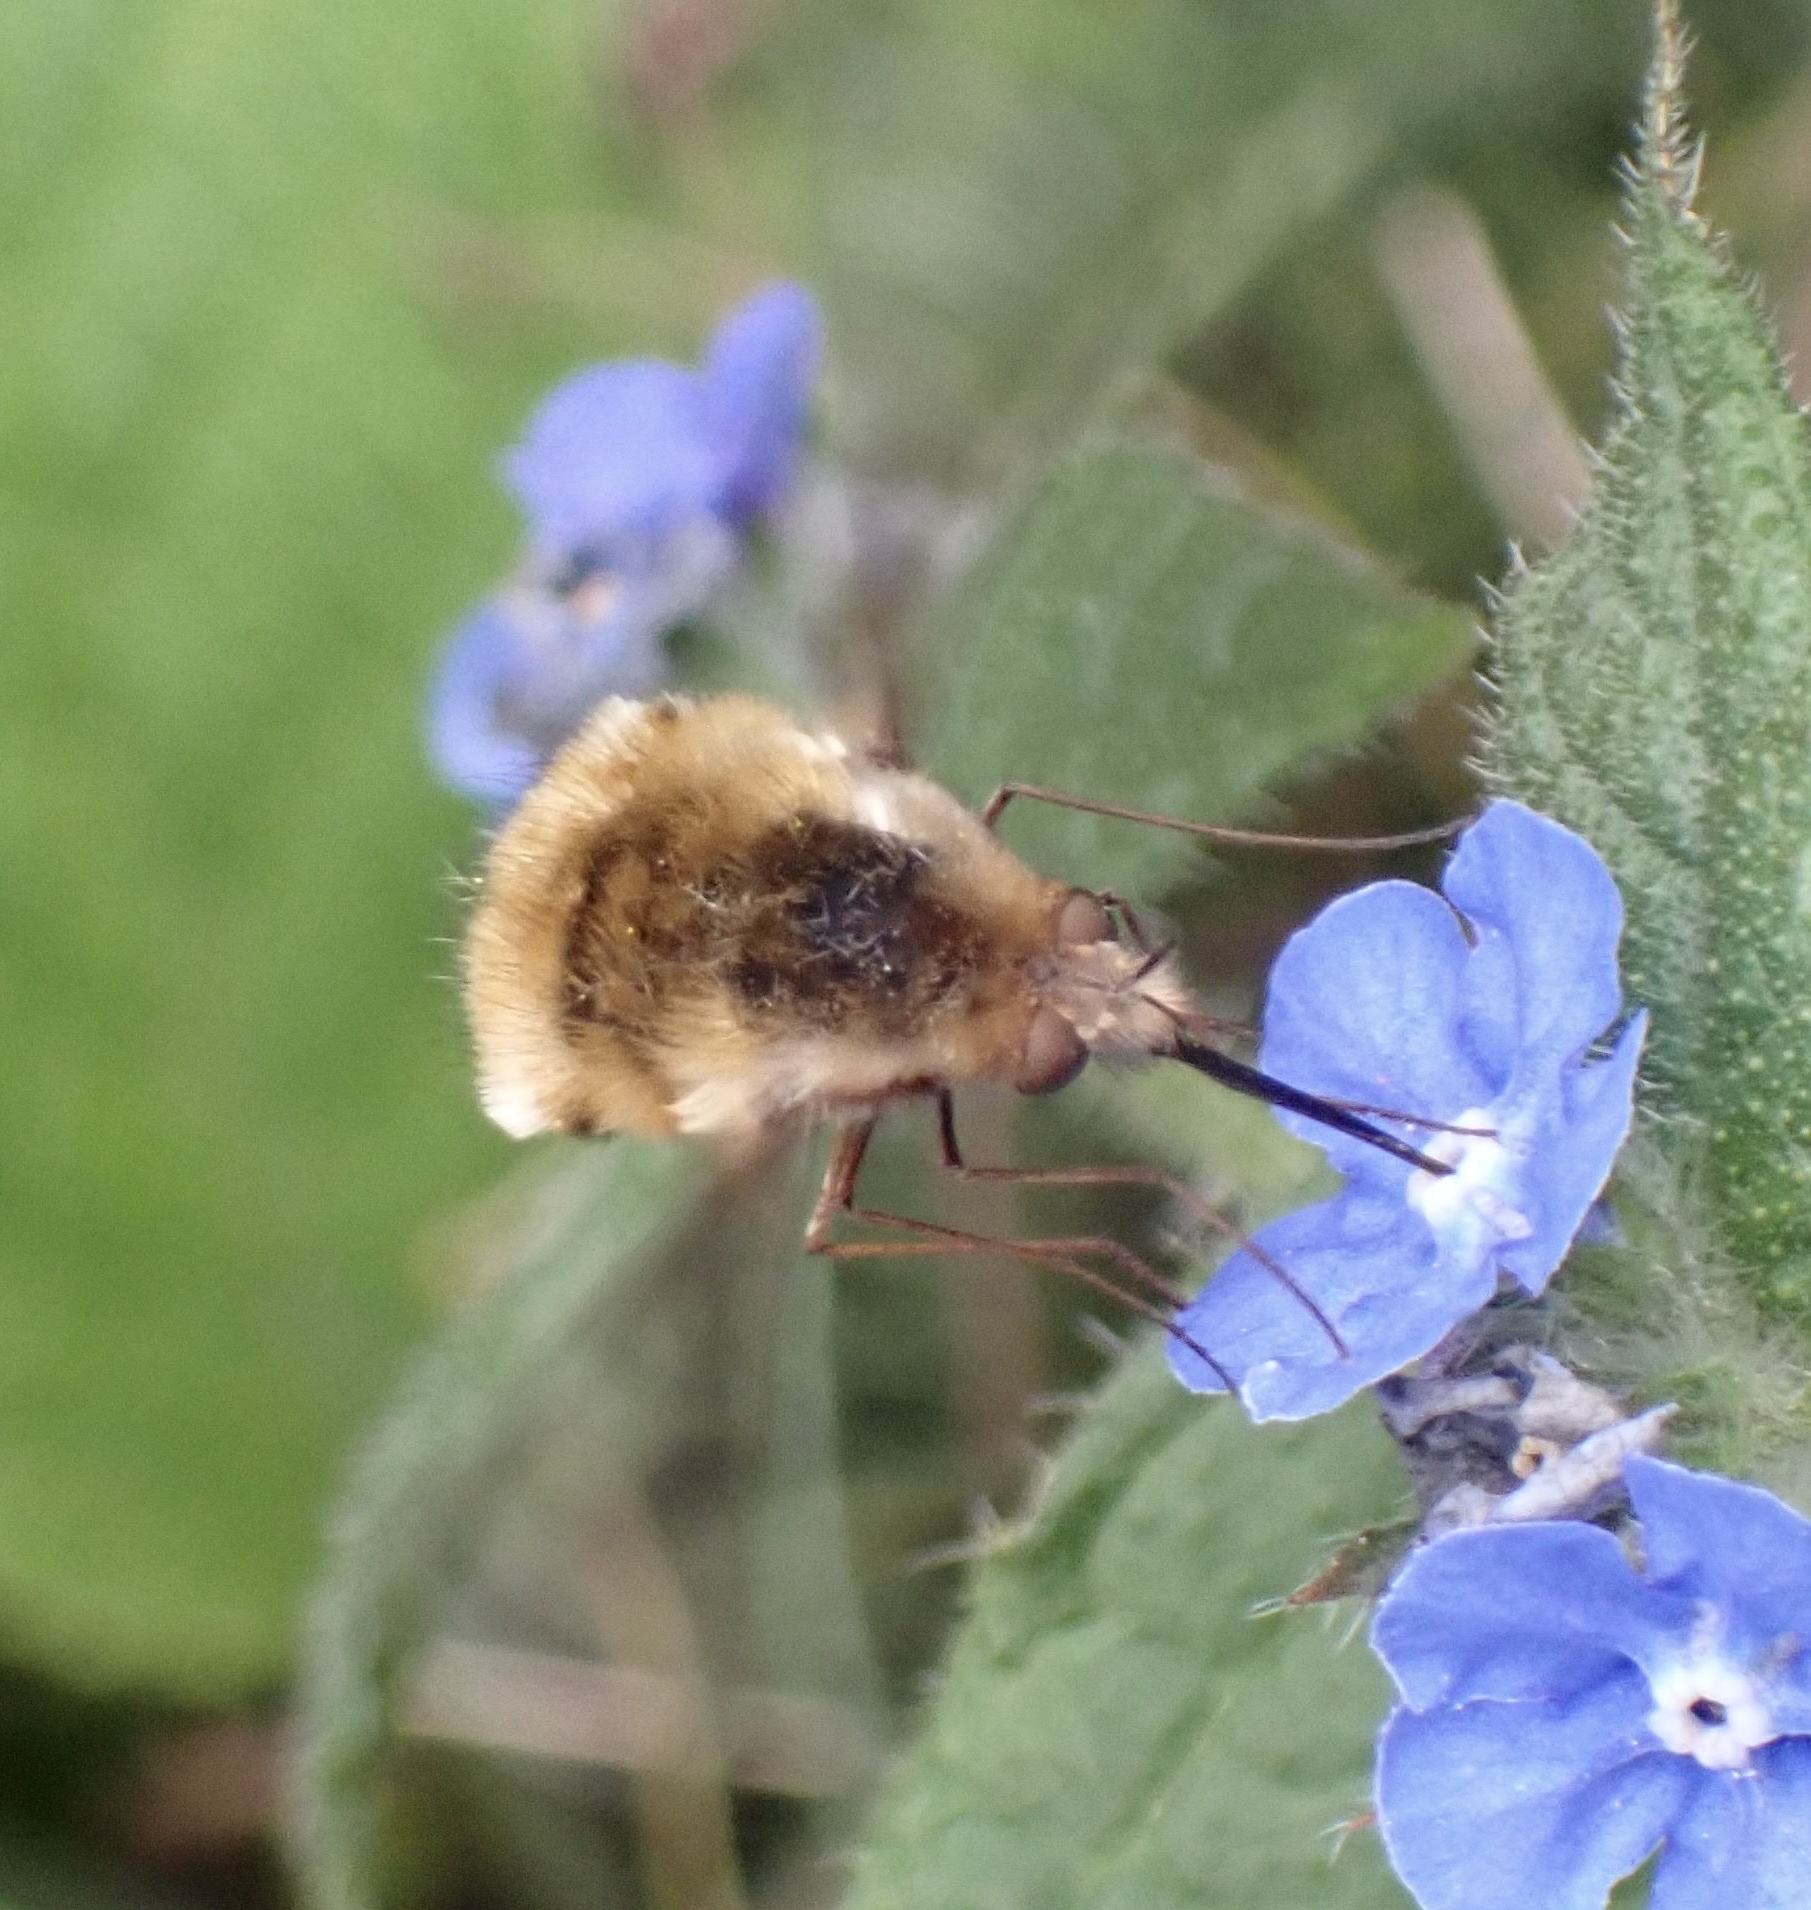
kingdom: Animalia
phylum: Arthropoda
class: Insecta
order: Diptera
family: Bombyliidae
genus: Bombylius
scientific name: Bombylius major
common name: Bee fly
